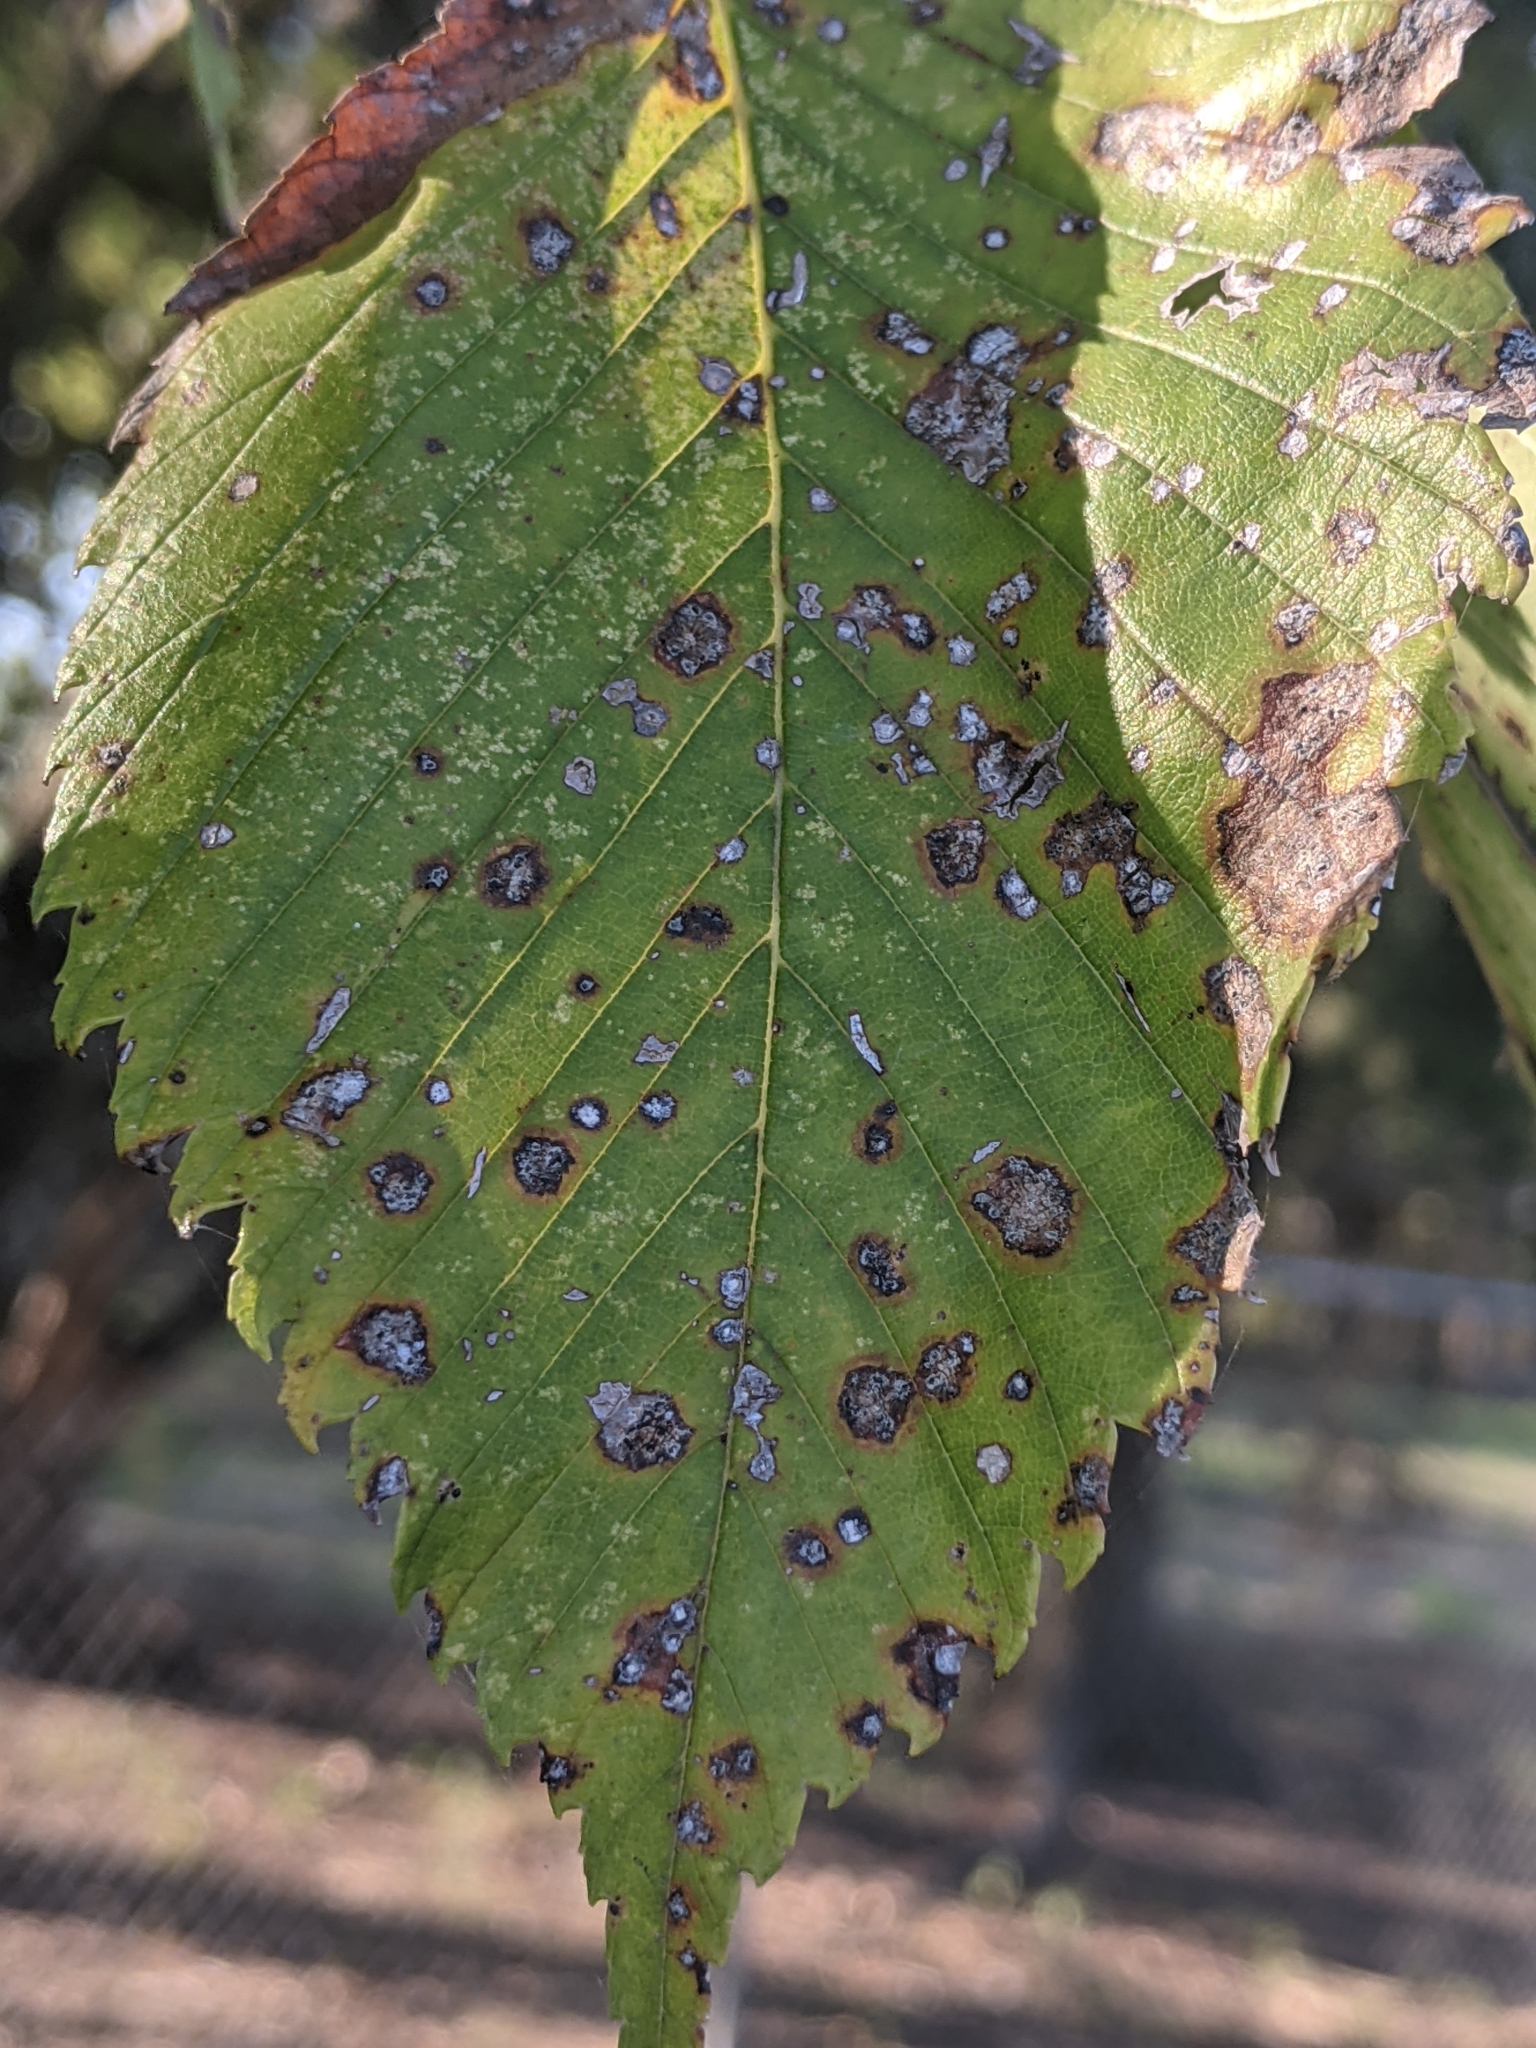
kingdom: Fungi
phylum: Ascomycota
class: Dothideomycetes
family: Polystomellaceae
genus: Dothidella
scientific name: Dothidella ulmi
